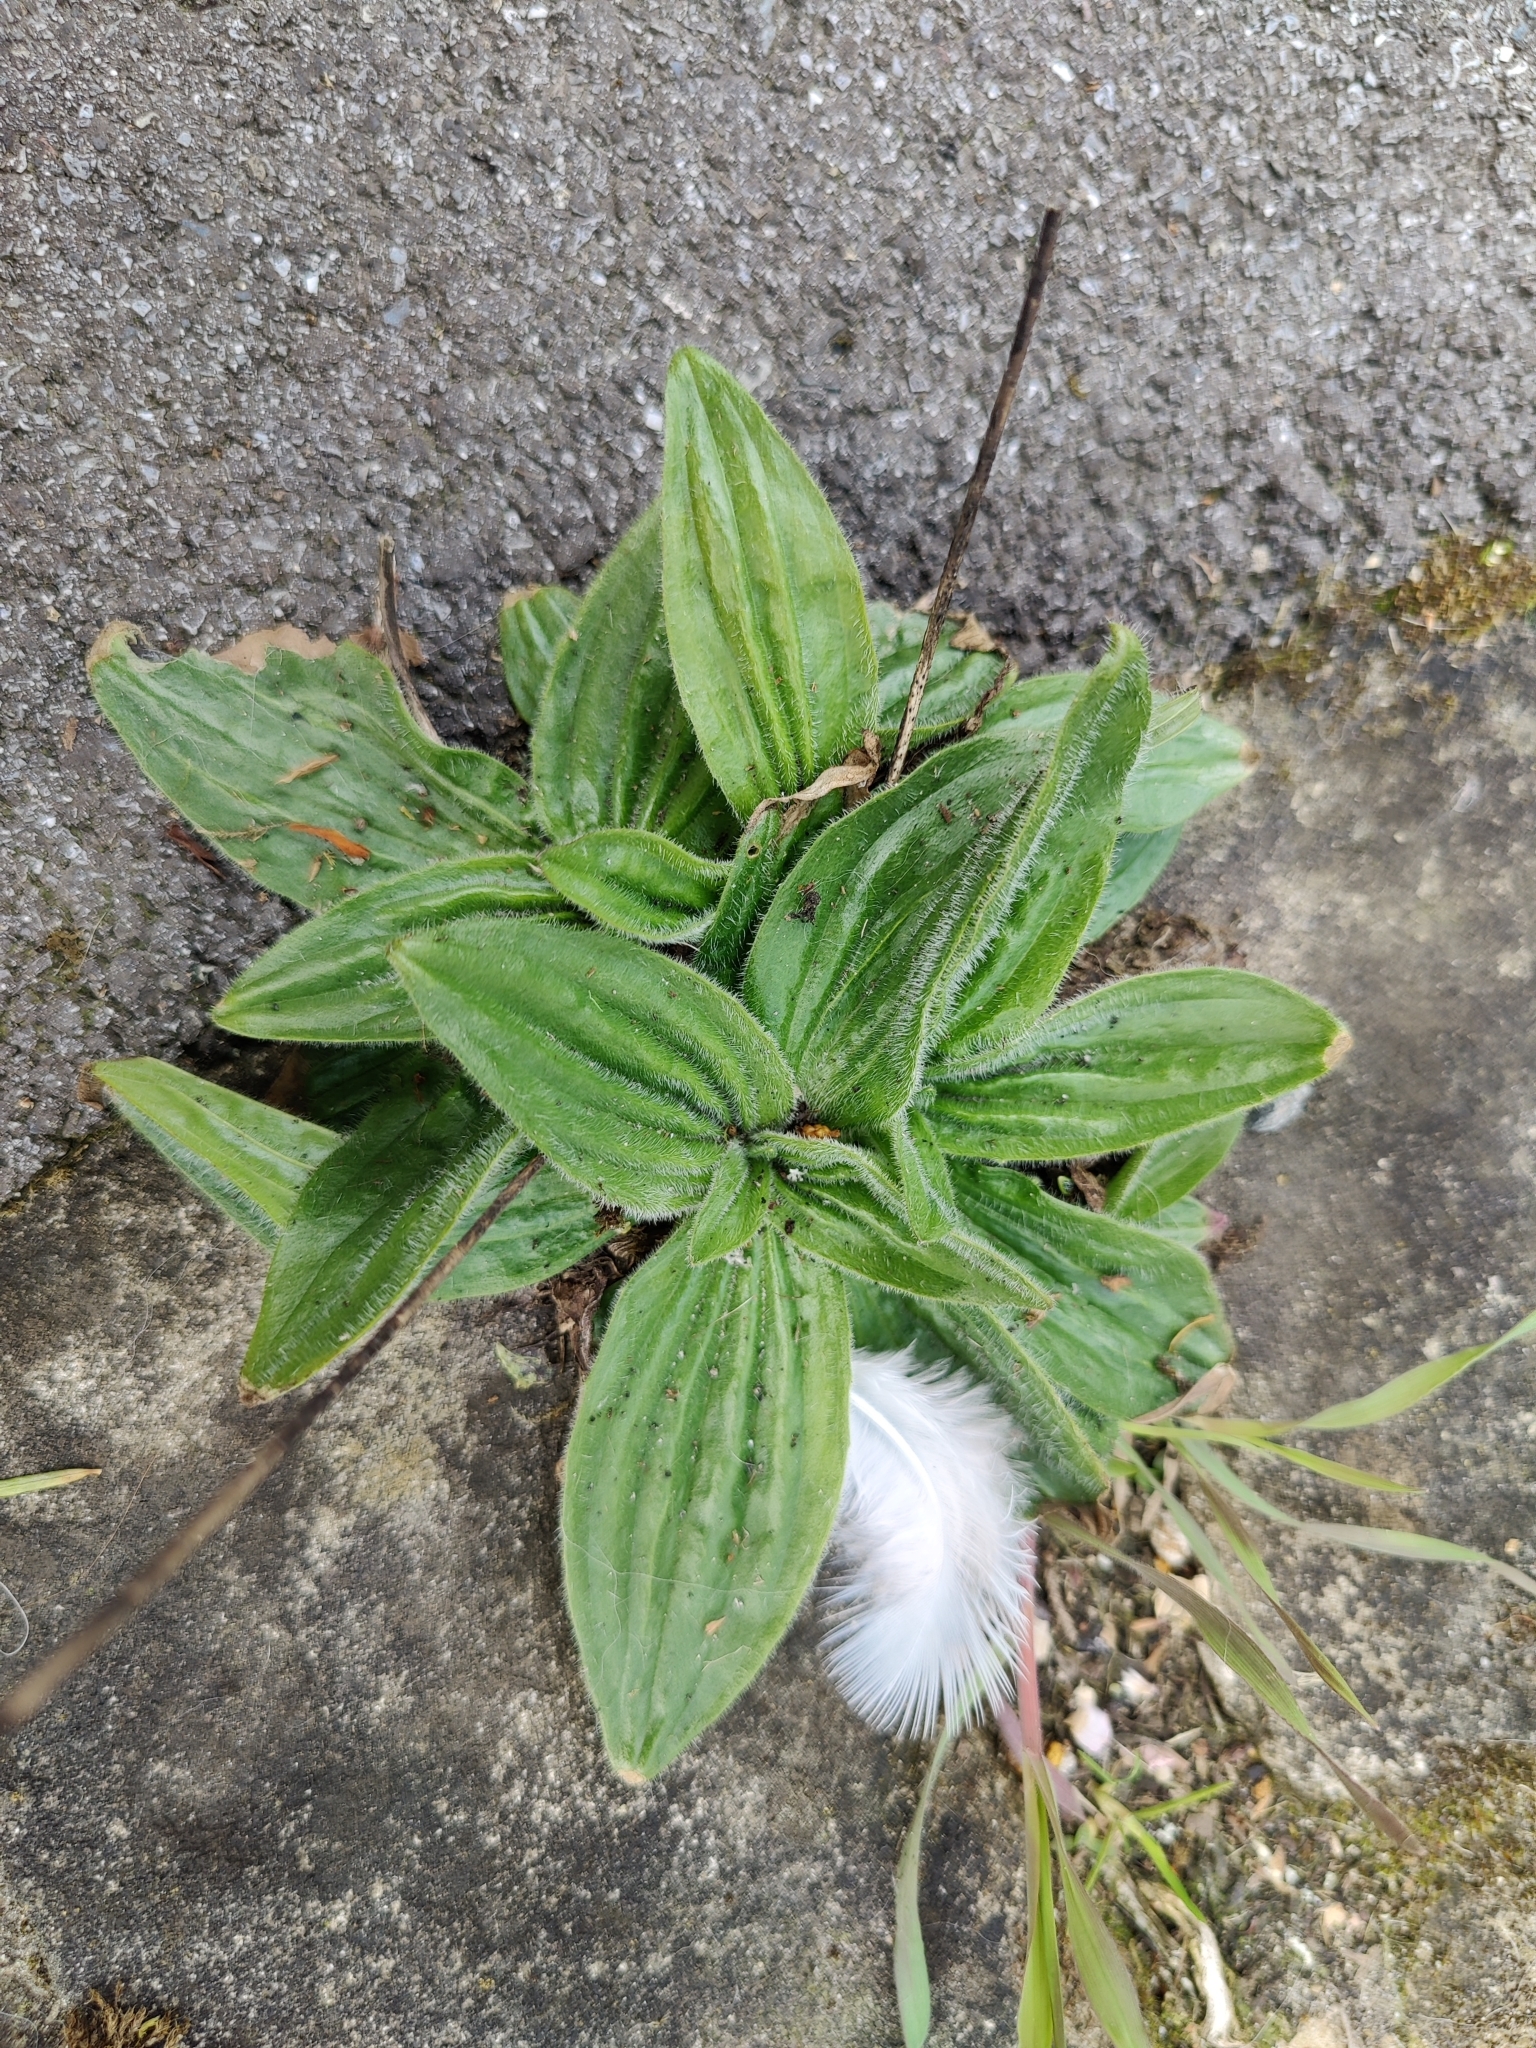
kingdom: Plantae
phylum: Tracheophyta
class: Magnoliopsida
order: Lamiales
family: Plantaginaceae
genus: Plantago
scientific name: Plantago media
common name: Hoary plantain
